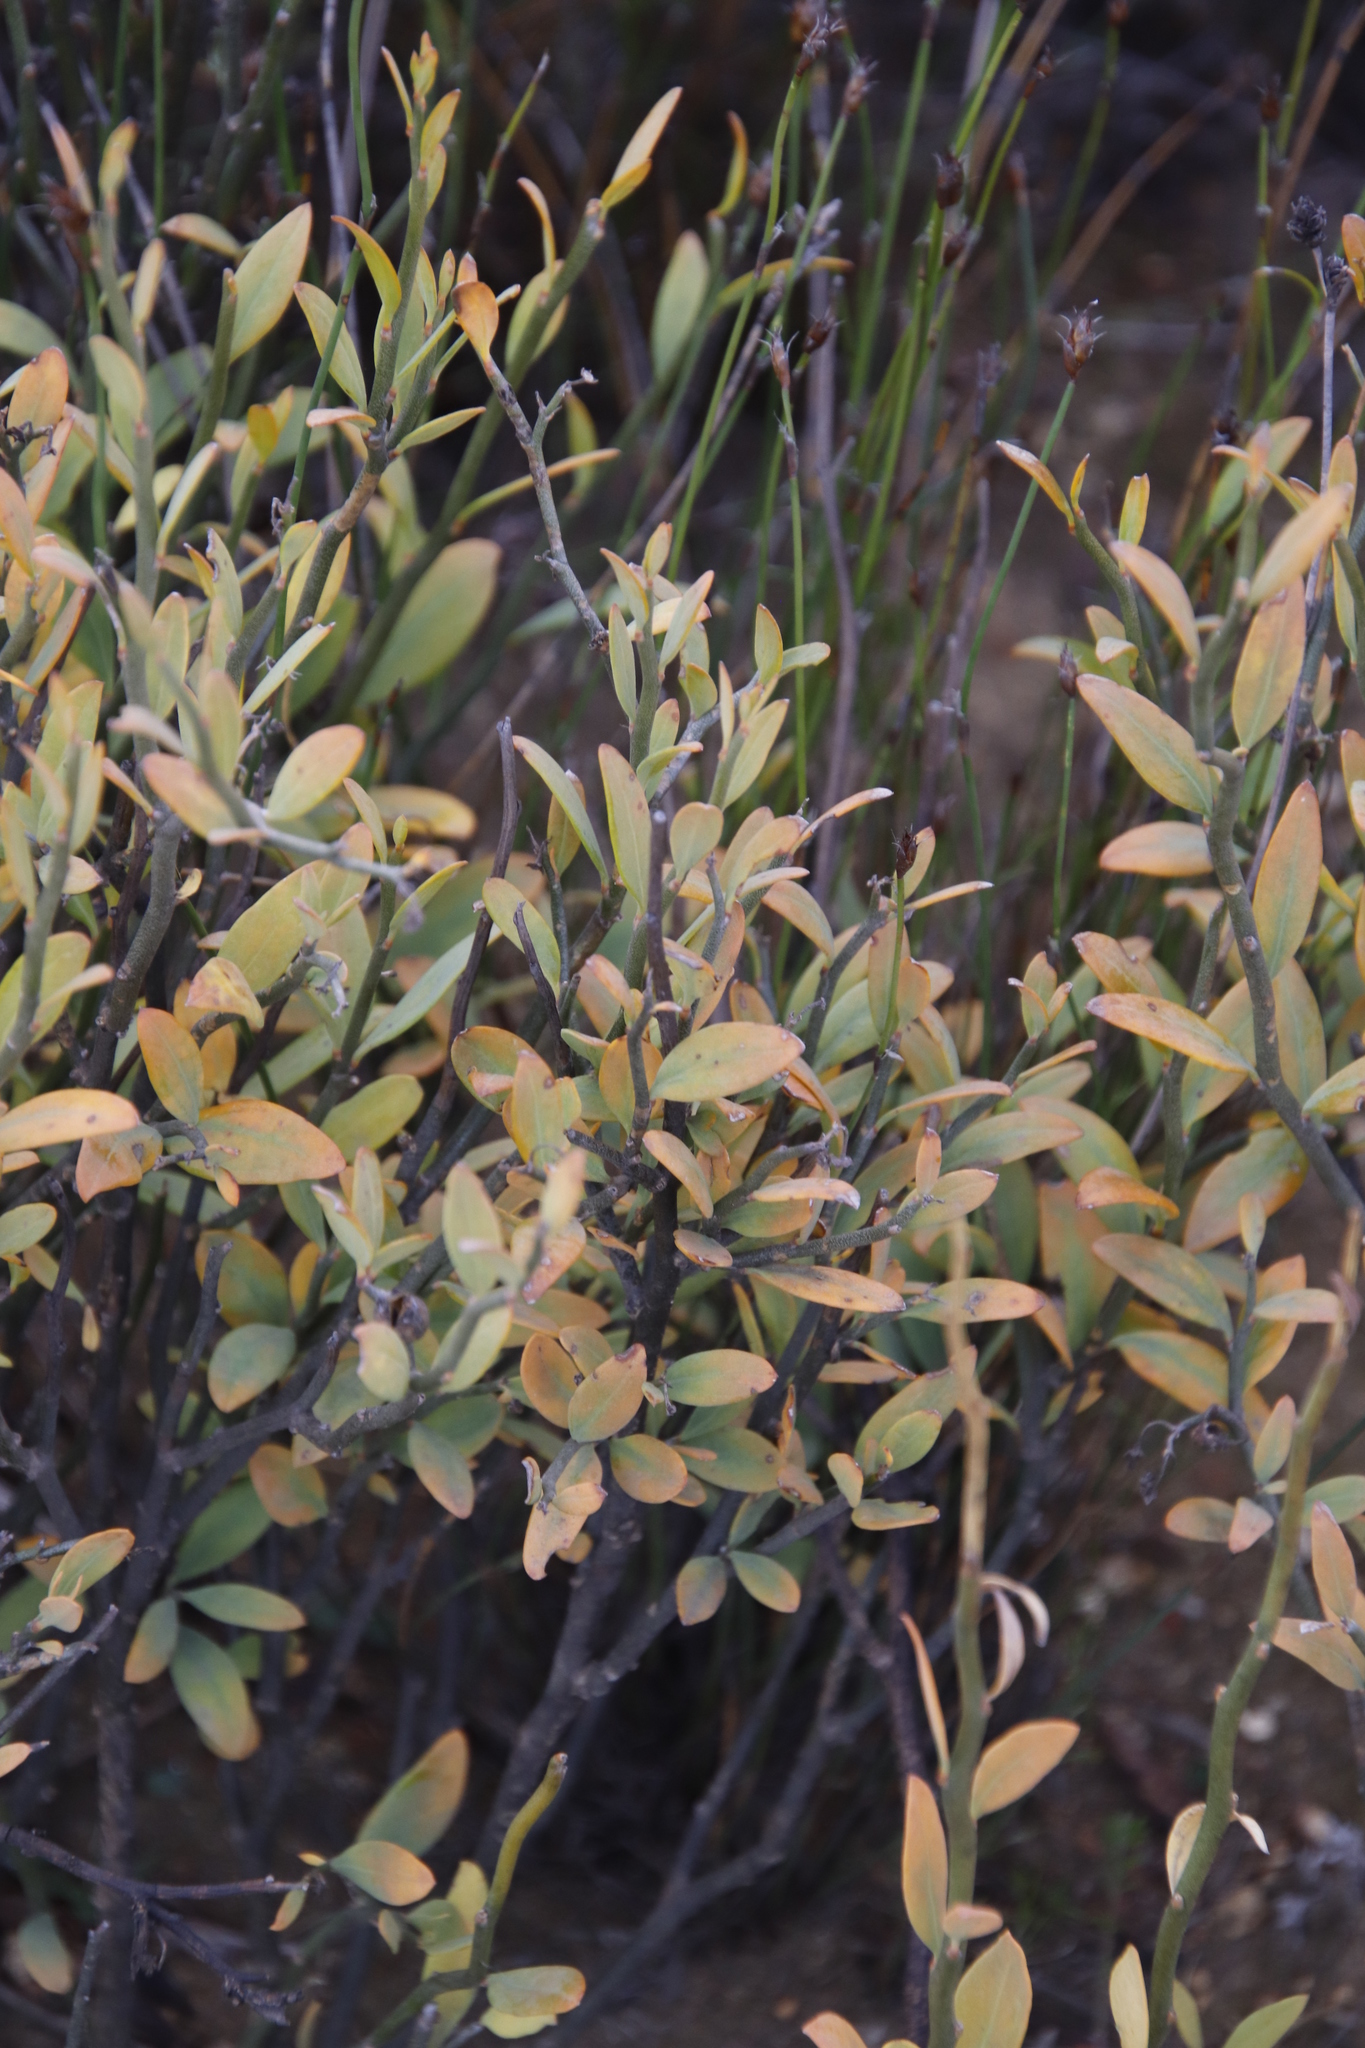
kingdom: Plantae
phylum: Tracheophyta
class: Magnoliopsida
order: Solanales
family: Montiniaceae
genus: Montinia
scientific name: Montinia caryophyllacea
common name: Wild clove-bush
